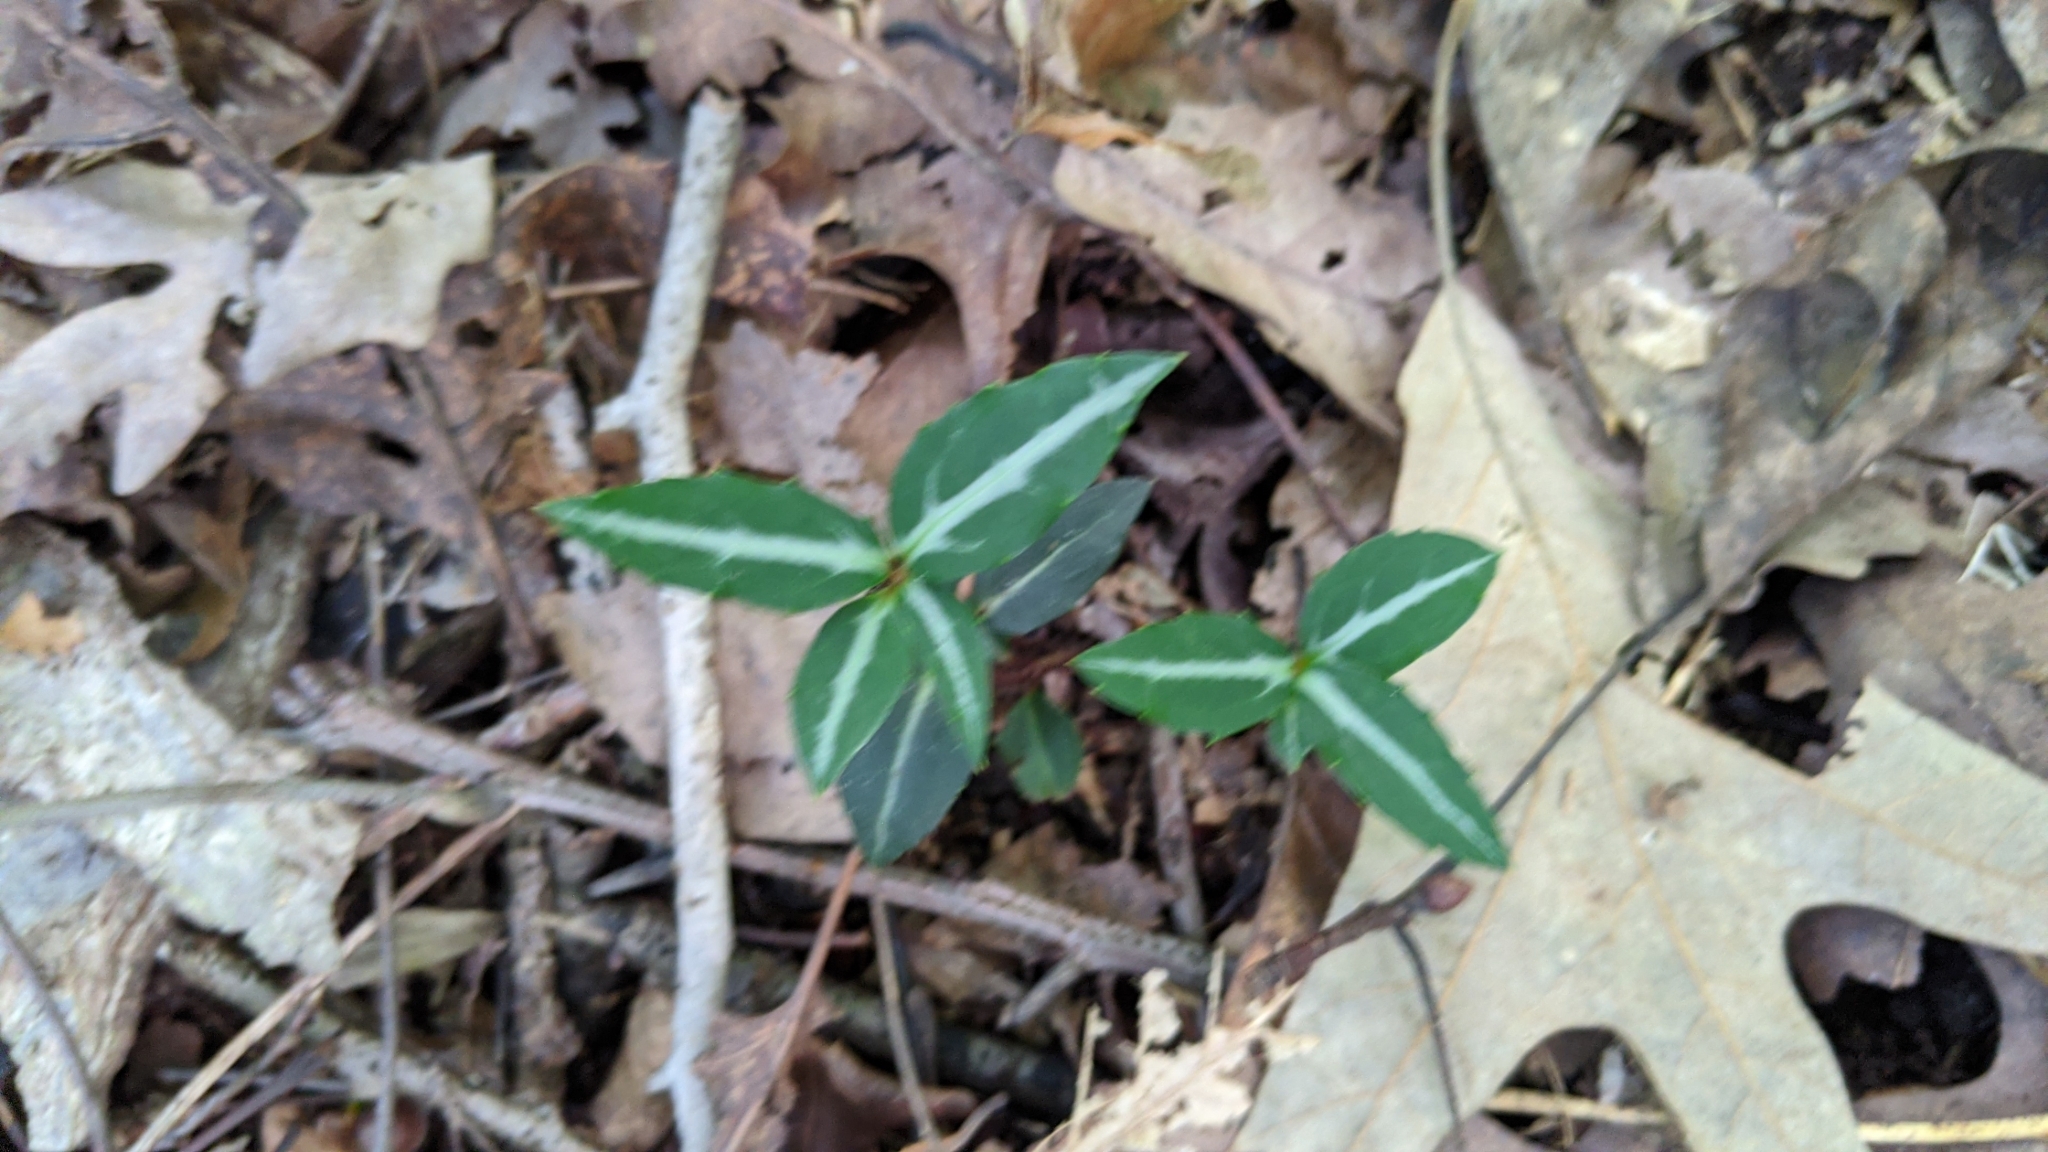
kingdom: Plantae
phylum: Tracheophyta
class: Magnoliopsida
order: Ericales
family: Ericaceae
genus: Chimaphila
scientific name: Chimaphila maculata
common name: Spotted pipsissewa
